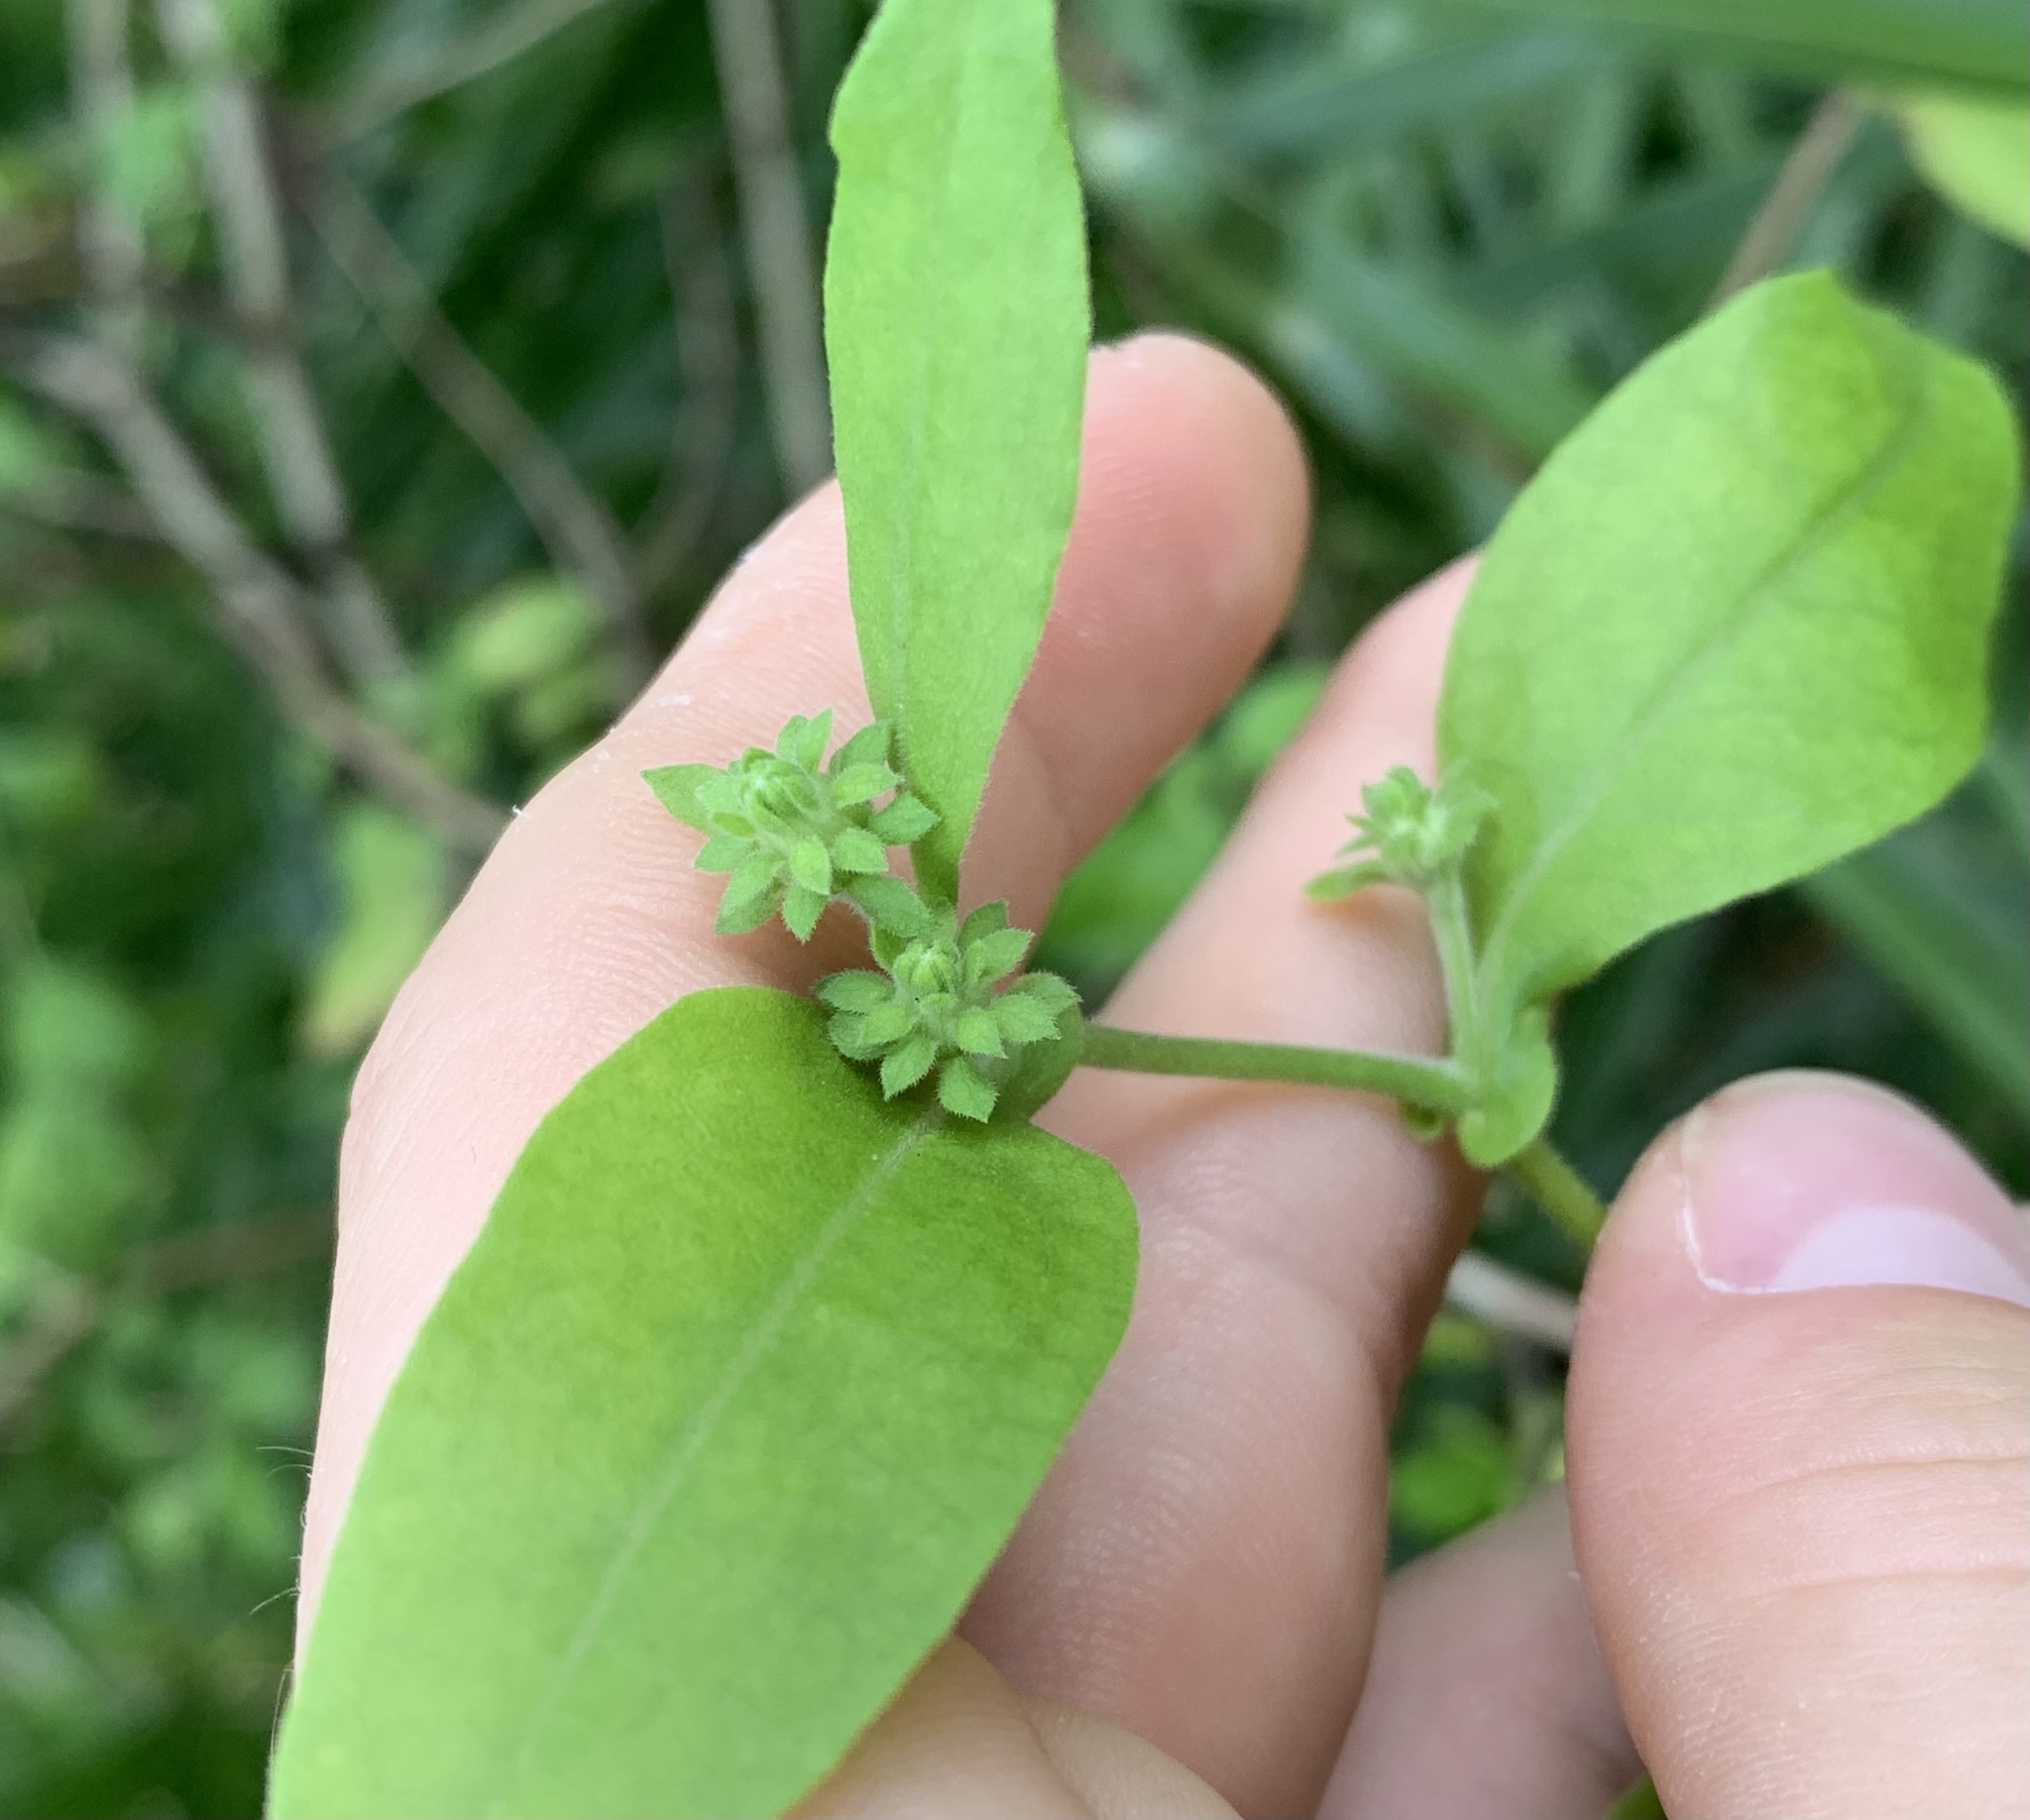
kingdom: Plantae
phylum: Tracheophyta
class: Magnoliopsida
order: Asterales
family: Asteraceae
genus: Ampelaster
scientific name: Ampelaster carolinianus
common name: Climbing aster
